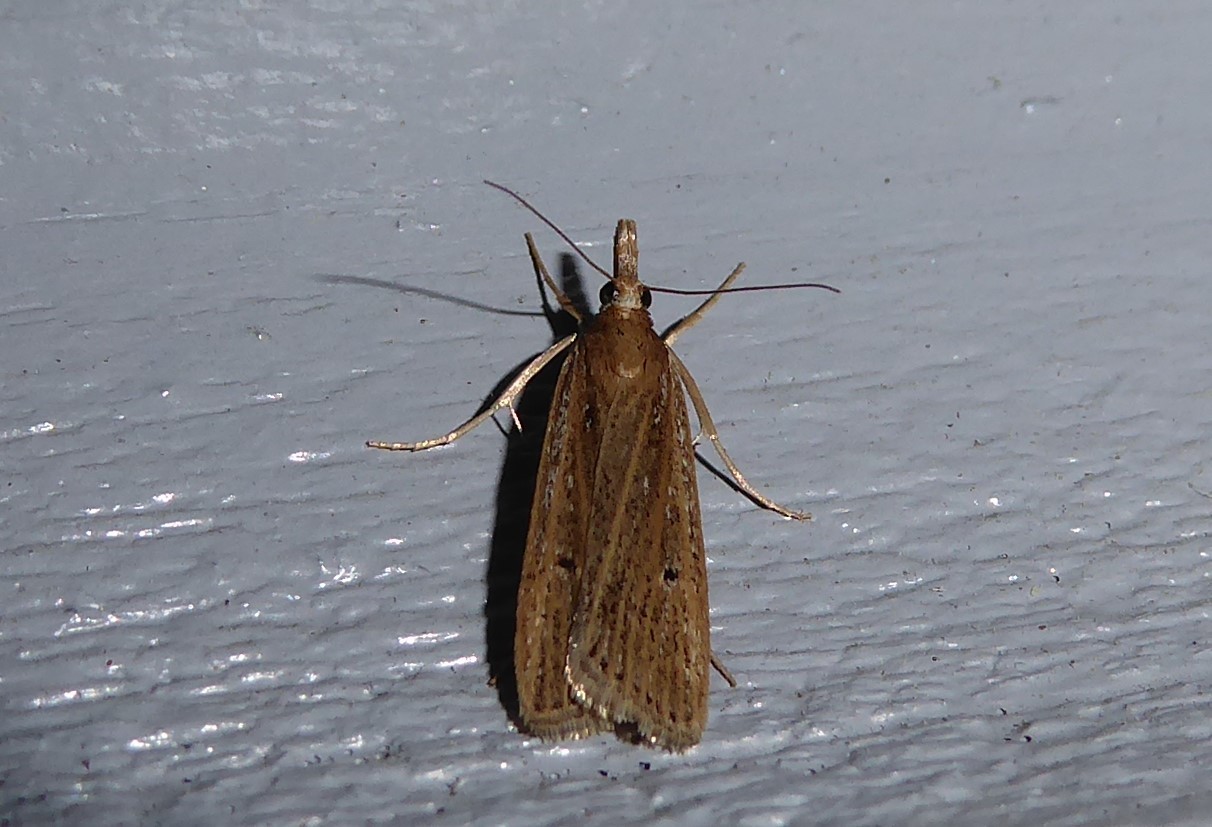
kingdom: Animalia
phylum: Arthropoda
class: Insecta
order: Lepidoptera
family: Crambidae
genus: Eudonia
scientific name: Eudonia sabulosella
